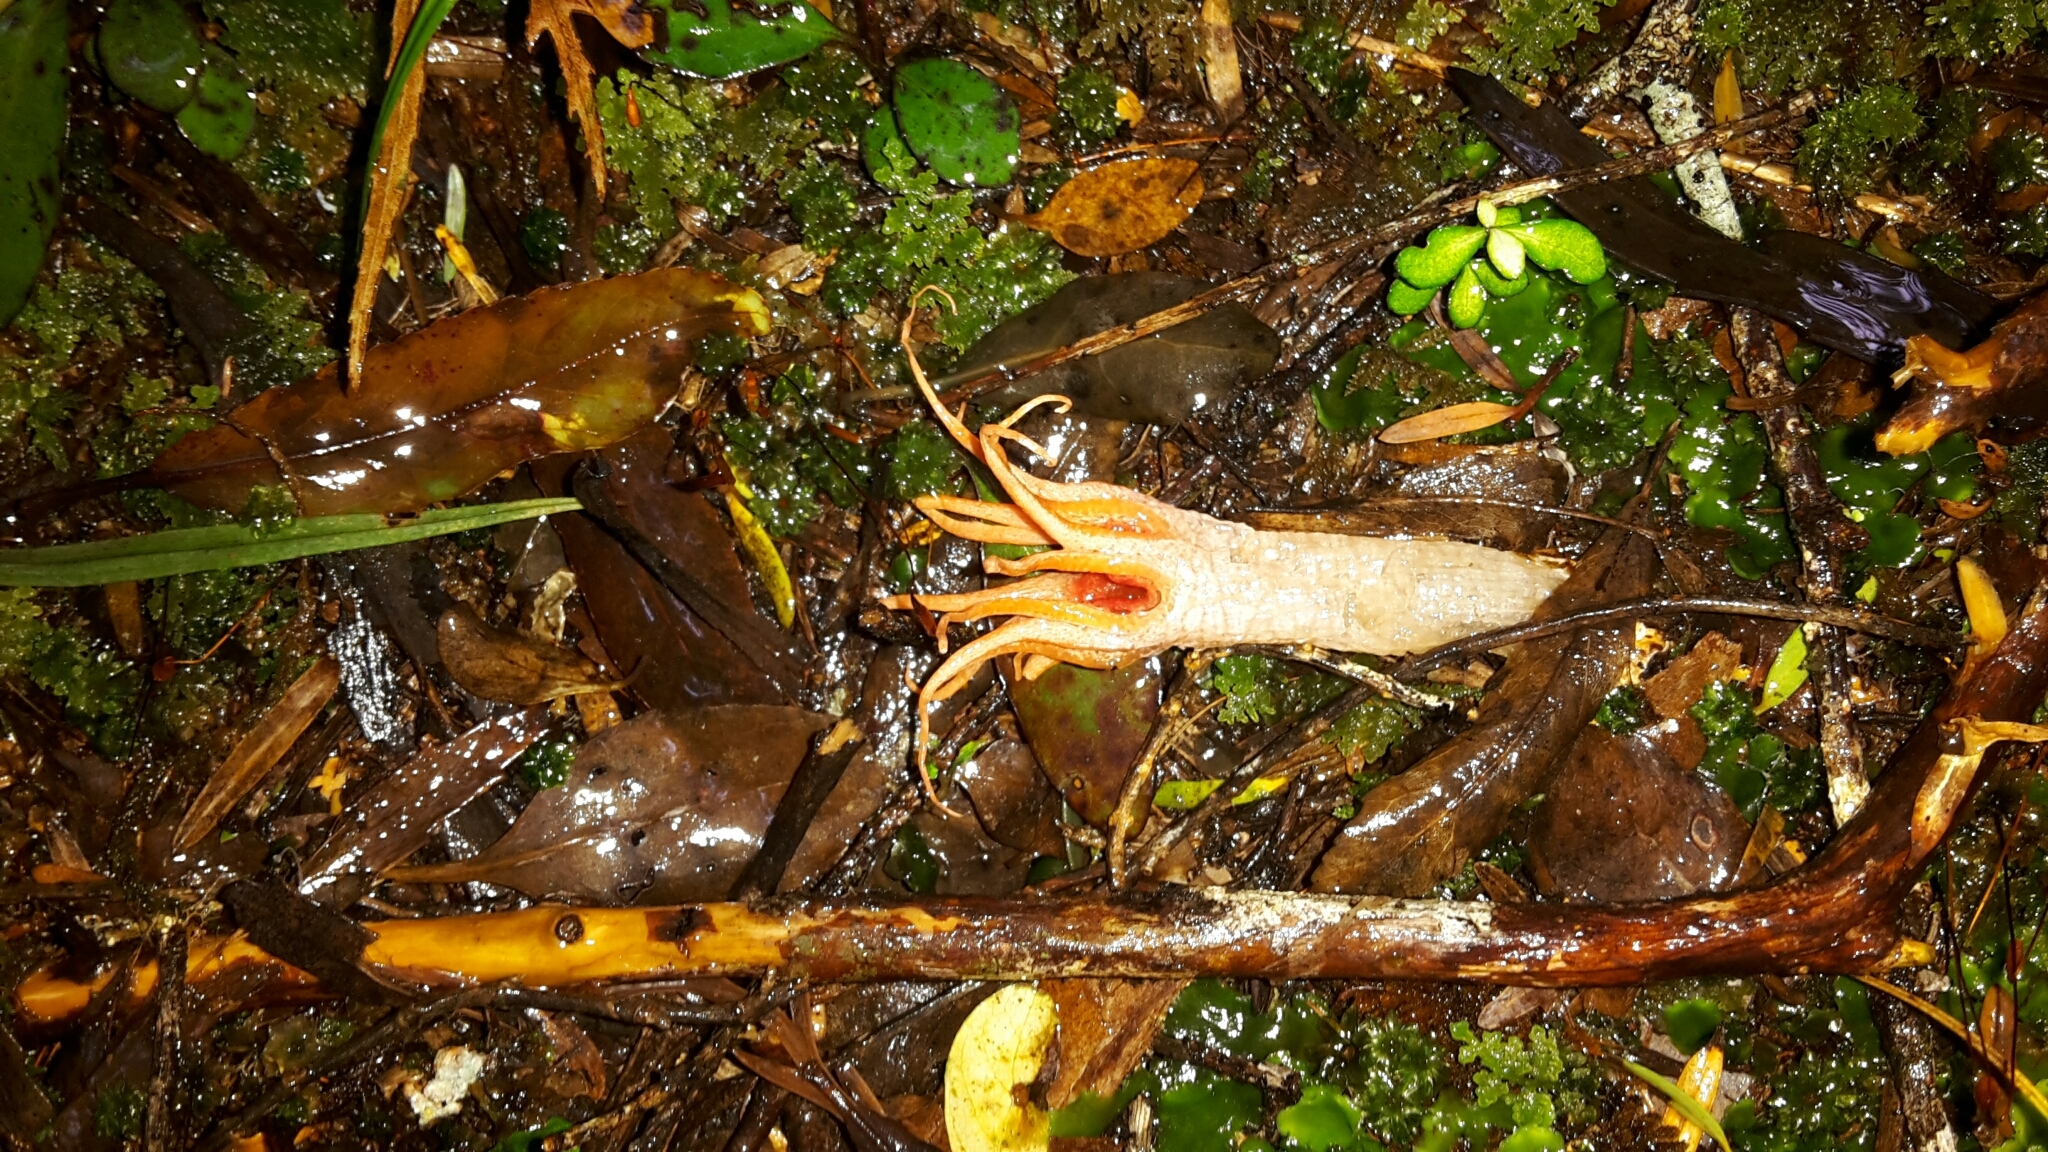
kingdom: Fungi
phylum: Basidiomycota
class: Agaricomycetes
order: Phallales
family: Phallaceae
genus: Aseroe
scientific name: Aseroe rubra
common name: Starfish fungus
